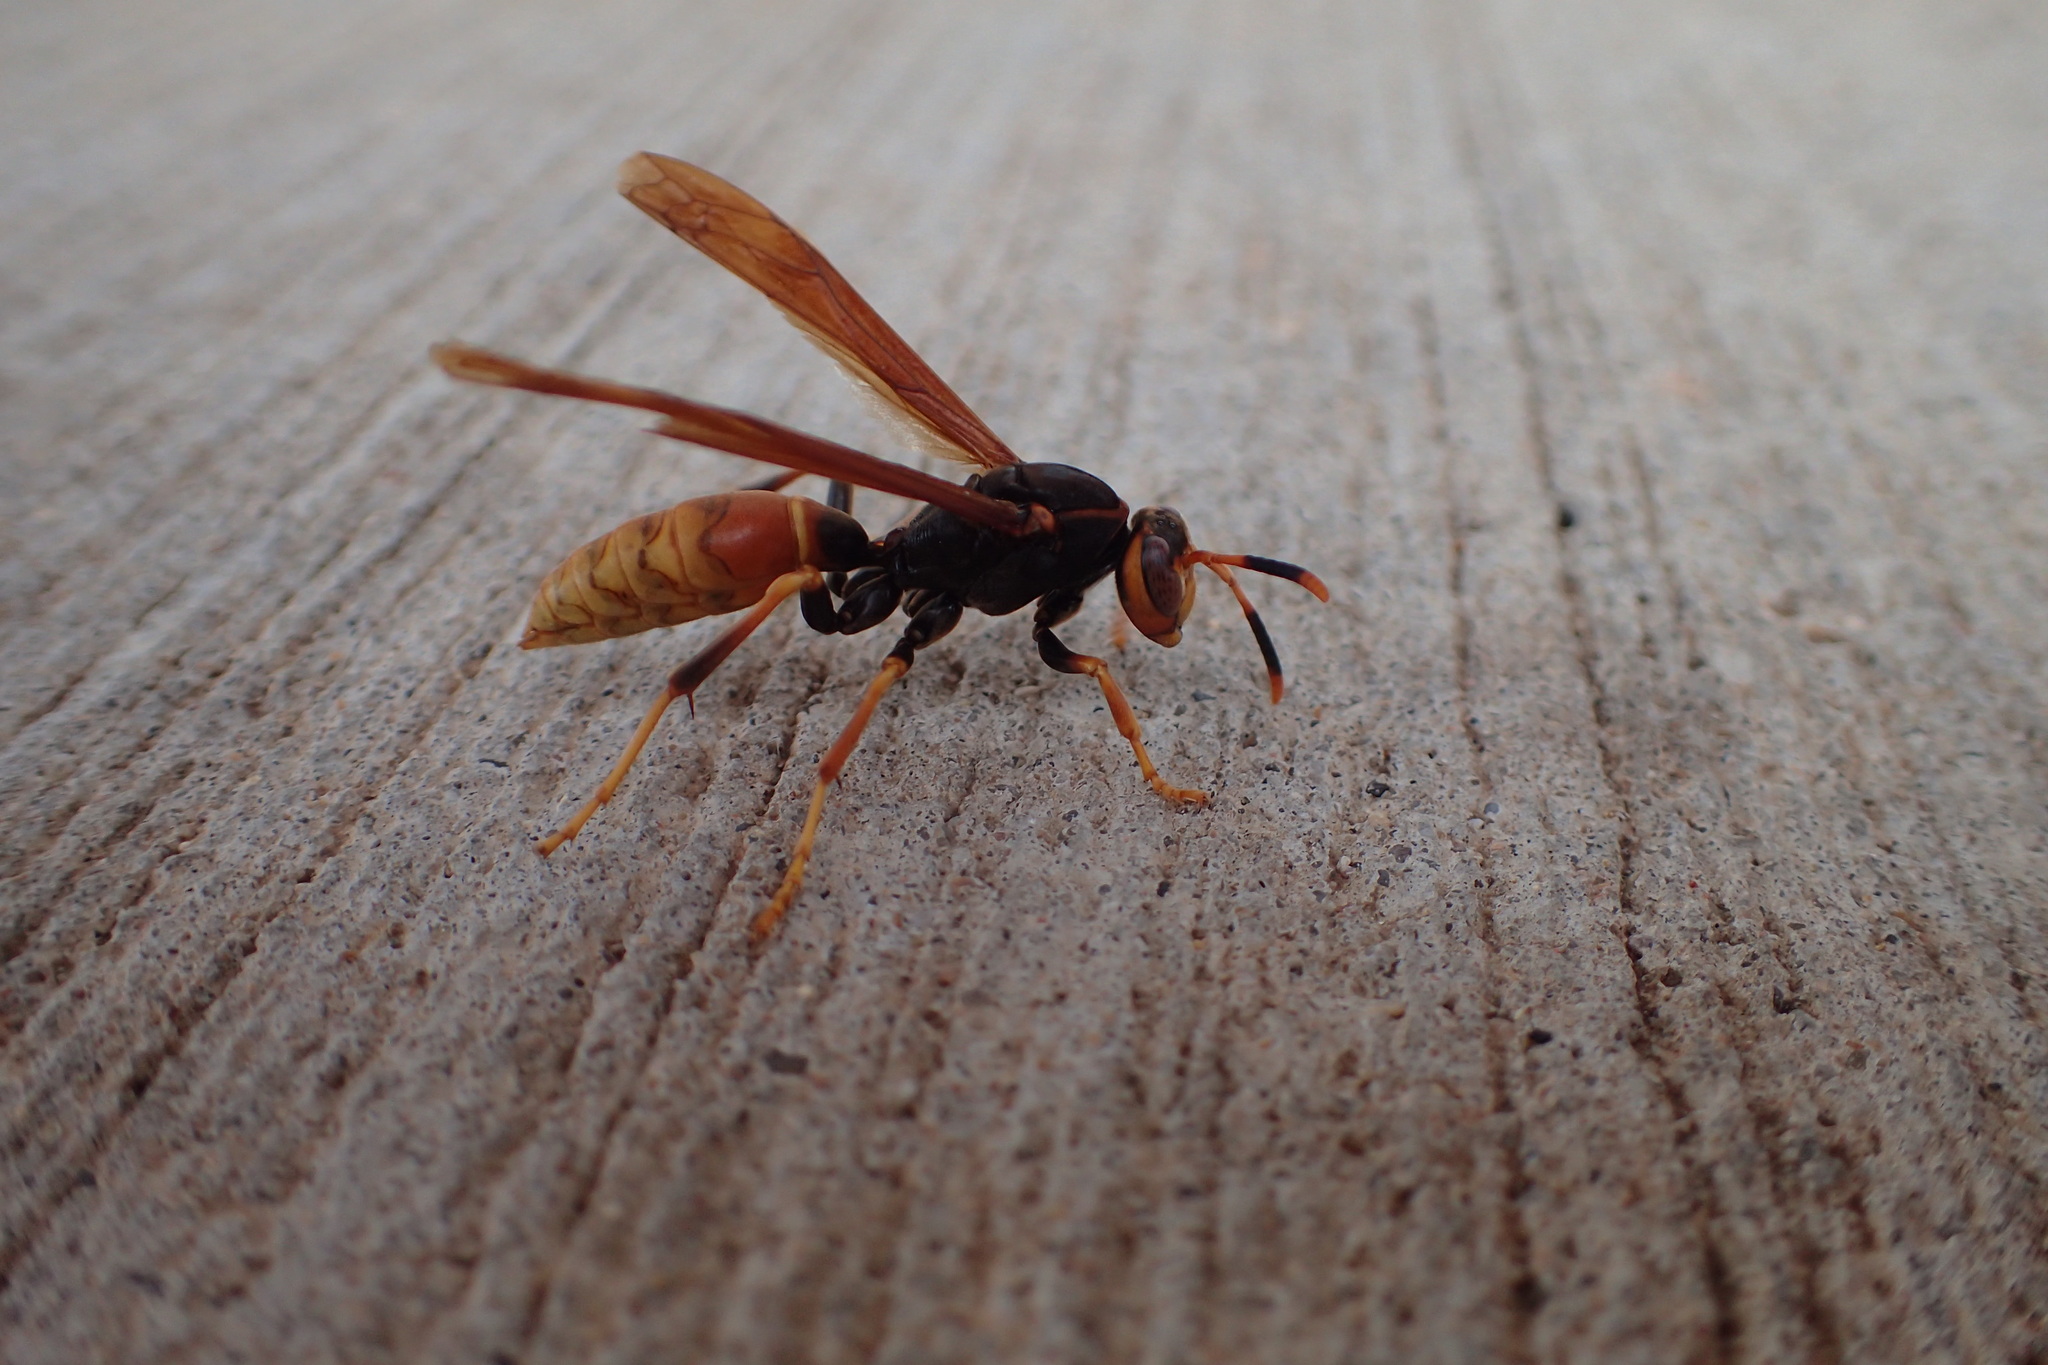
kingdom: Animalia
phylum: Arthropoda
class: Insecta
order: Hymenoptera
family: Eumenidae
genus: Polistes
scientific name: Polistes comanchus
